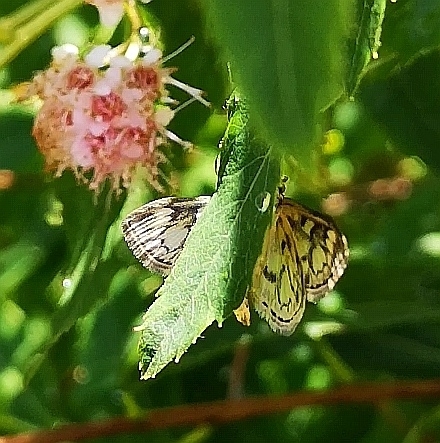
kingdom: Animalia
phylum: Arthropoda
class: Insecta
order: Lepidoptera
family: Crambidae
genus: Anania
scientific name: Anania coronata
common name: Elder pearl
